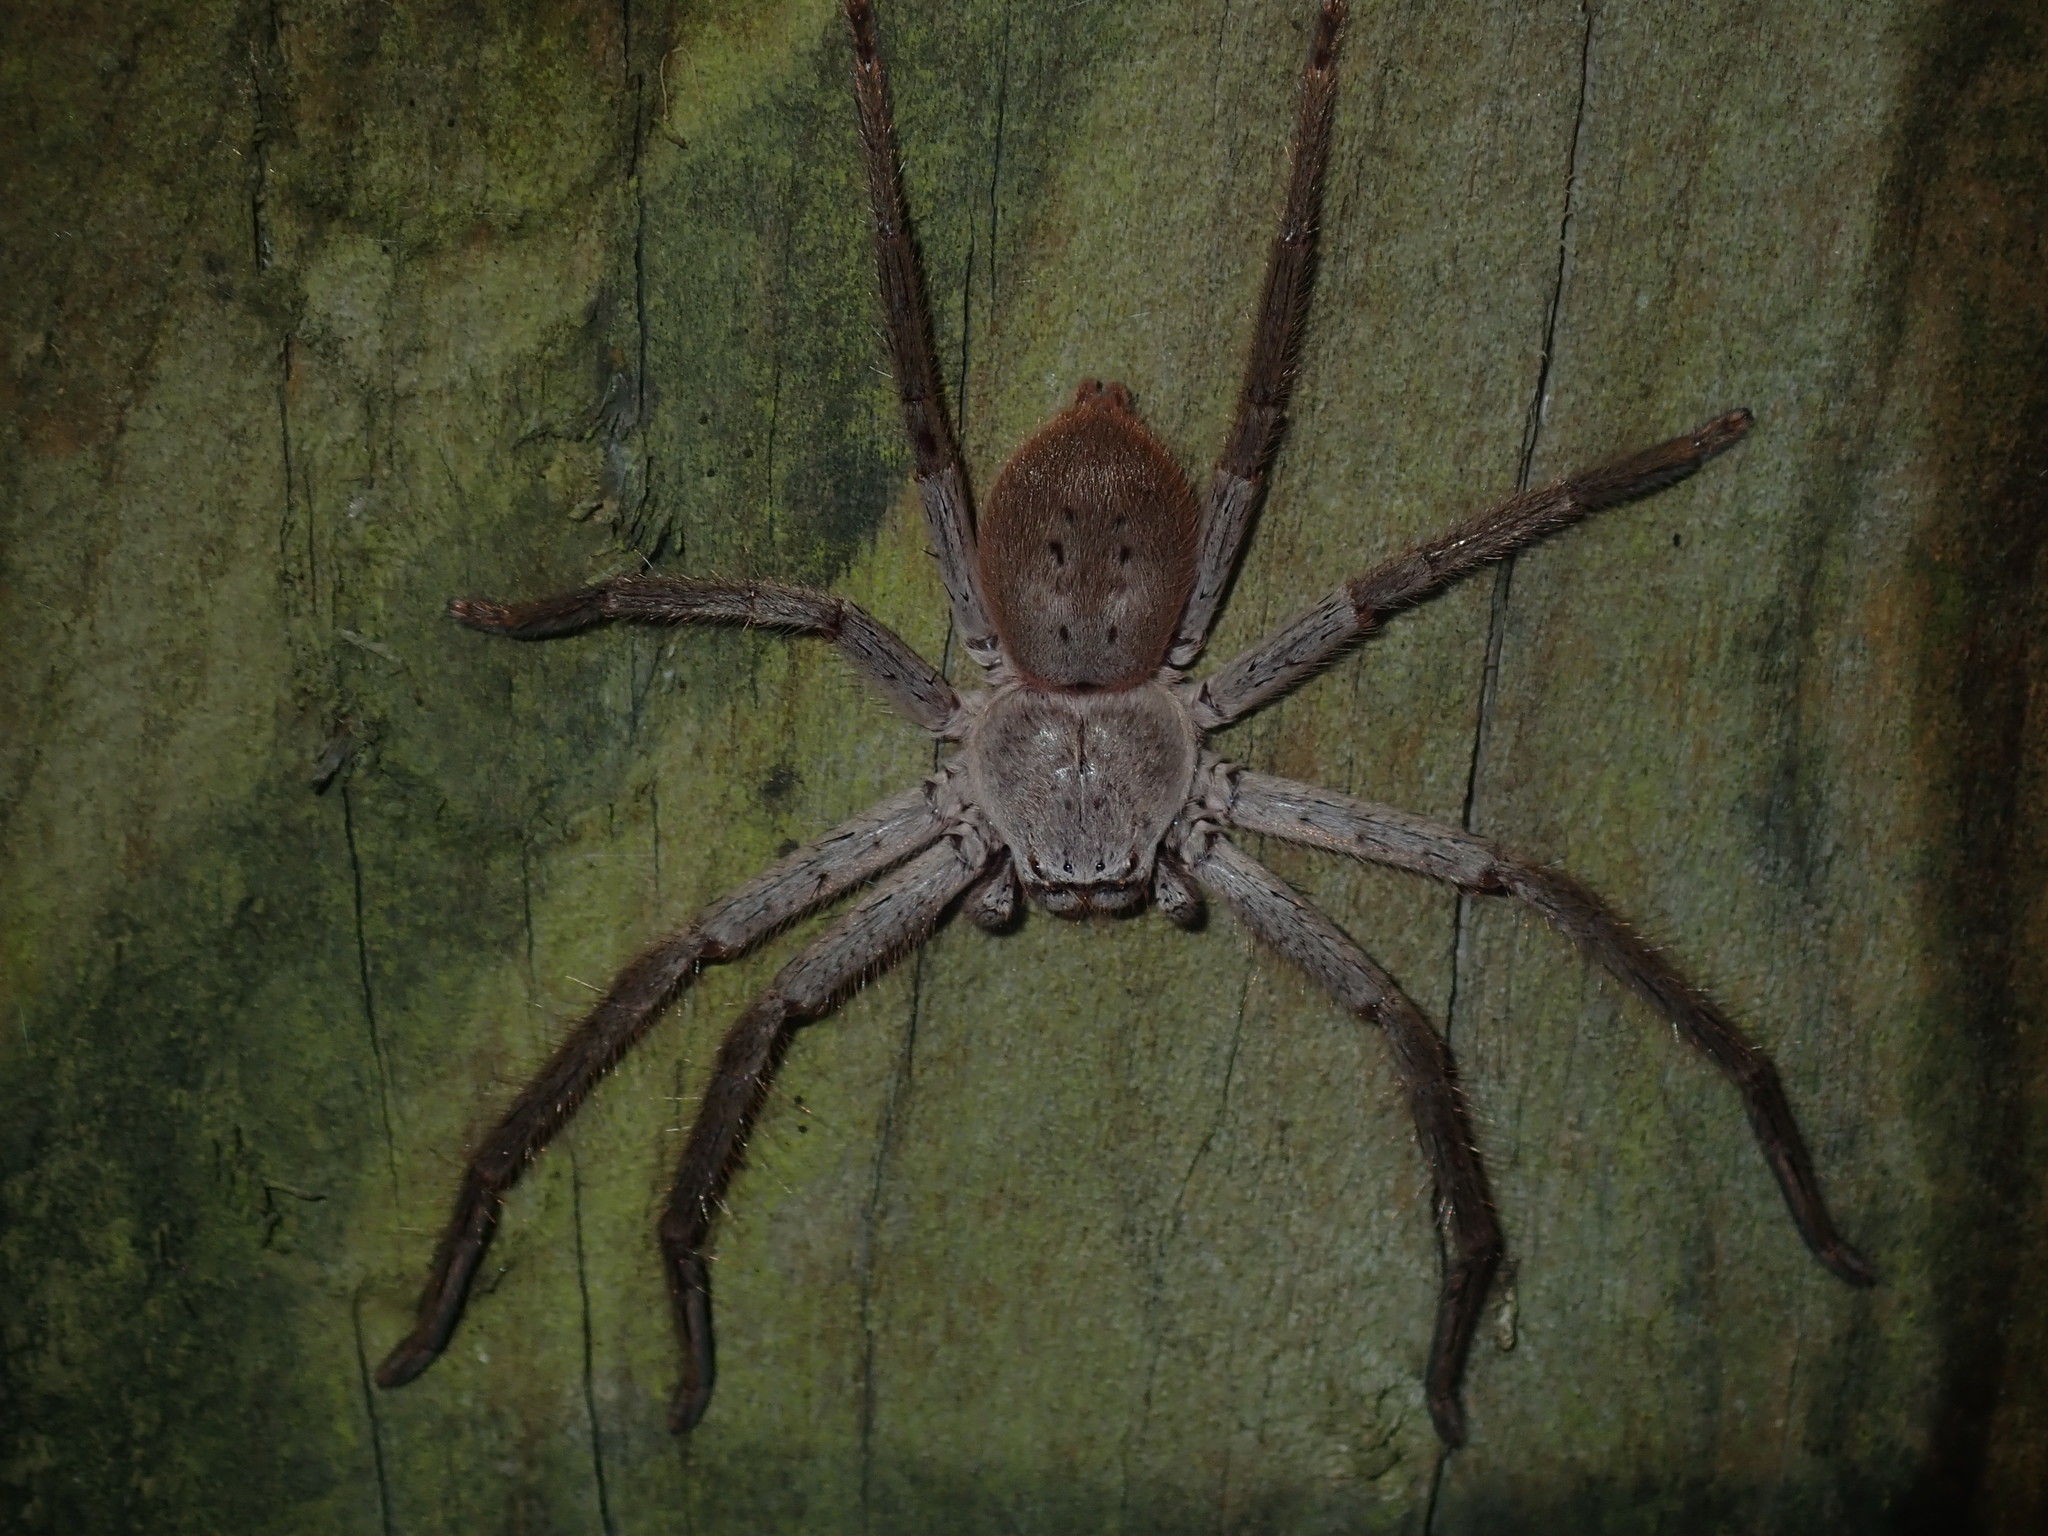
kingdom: Animalia
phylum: Arthropoda
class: Arachnida
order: Araneae
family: Sparassidae
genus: Isopeda
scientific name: Isopeda villosa
